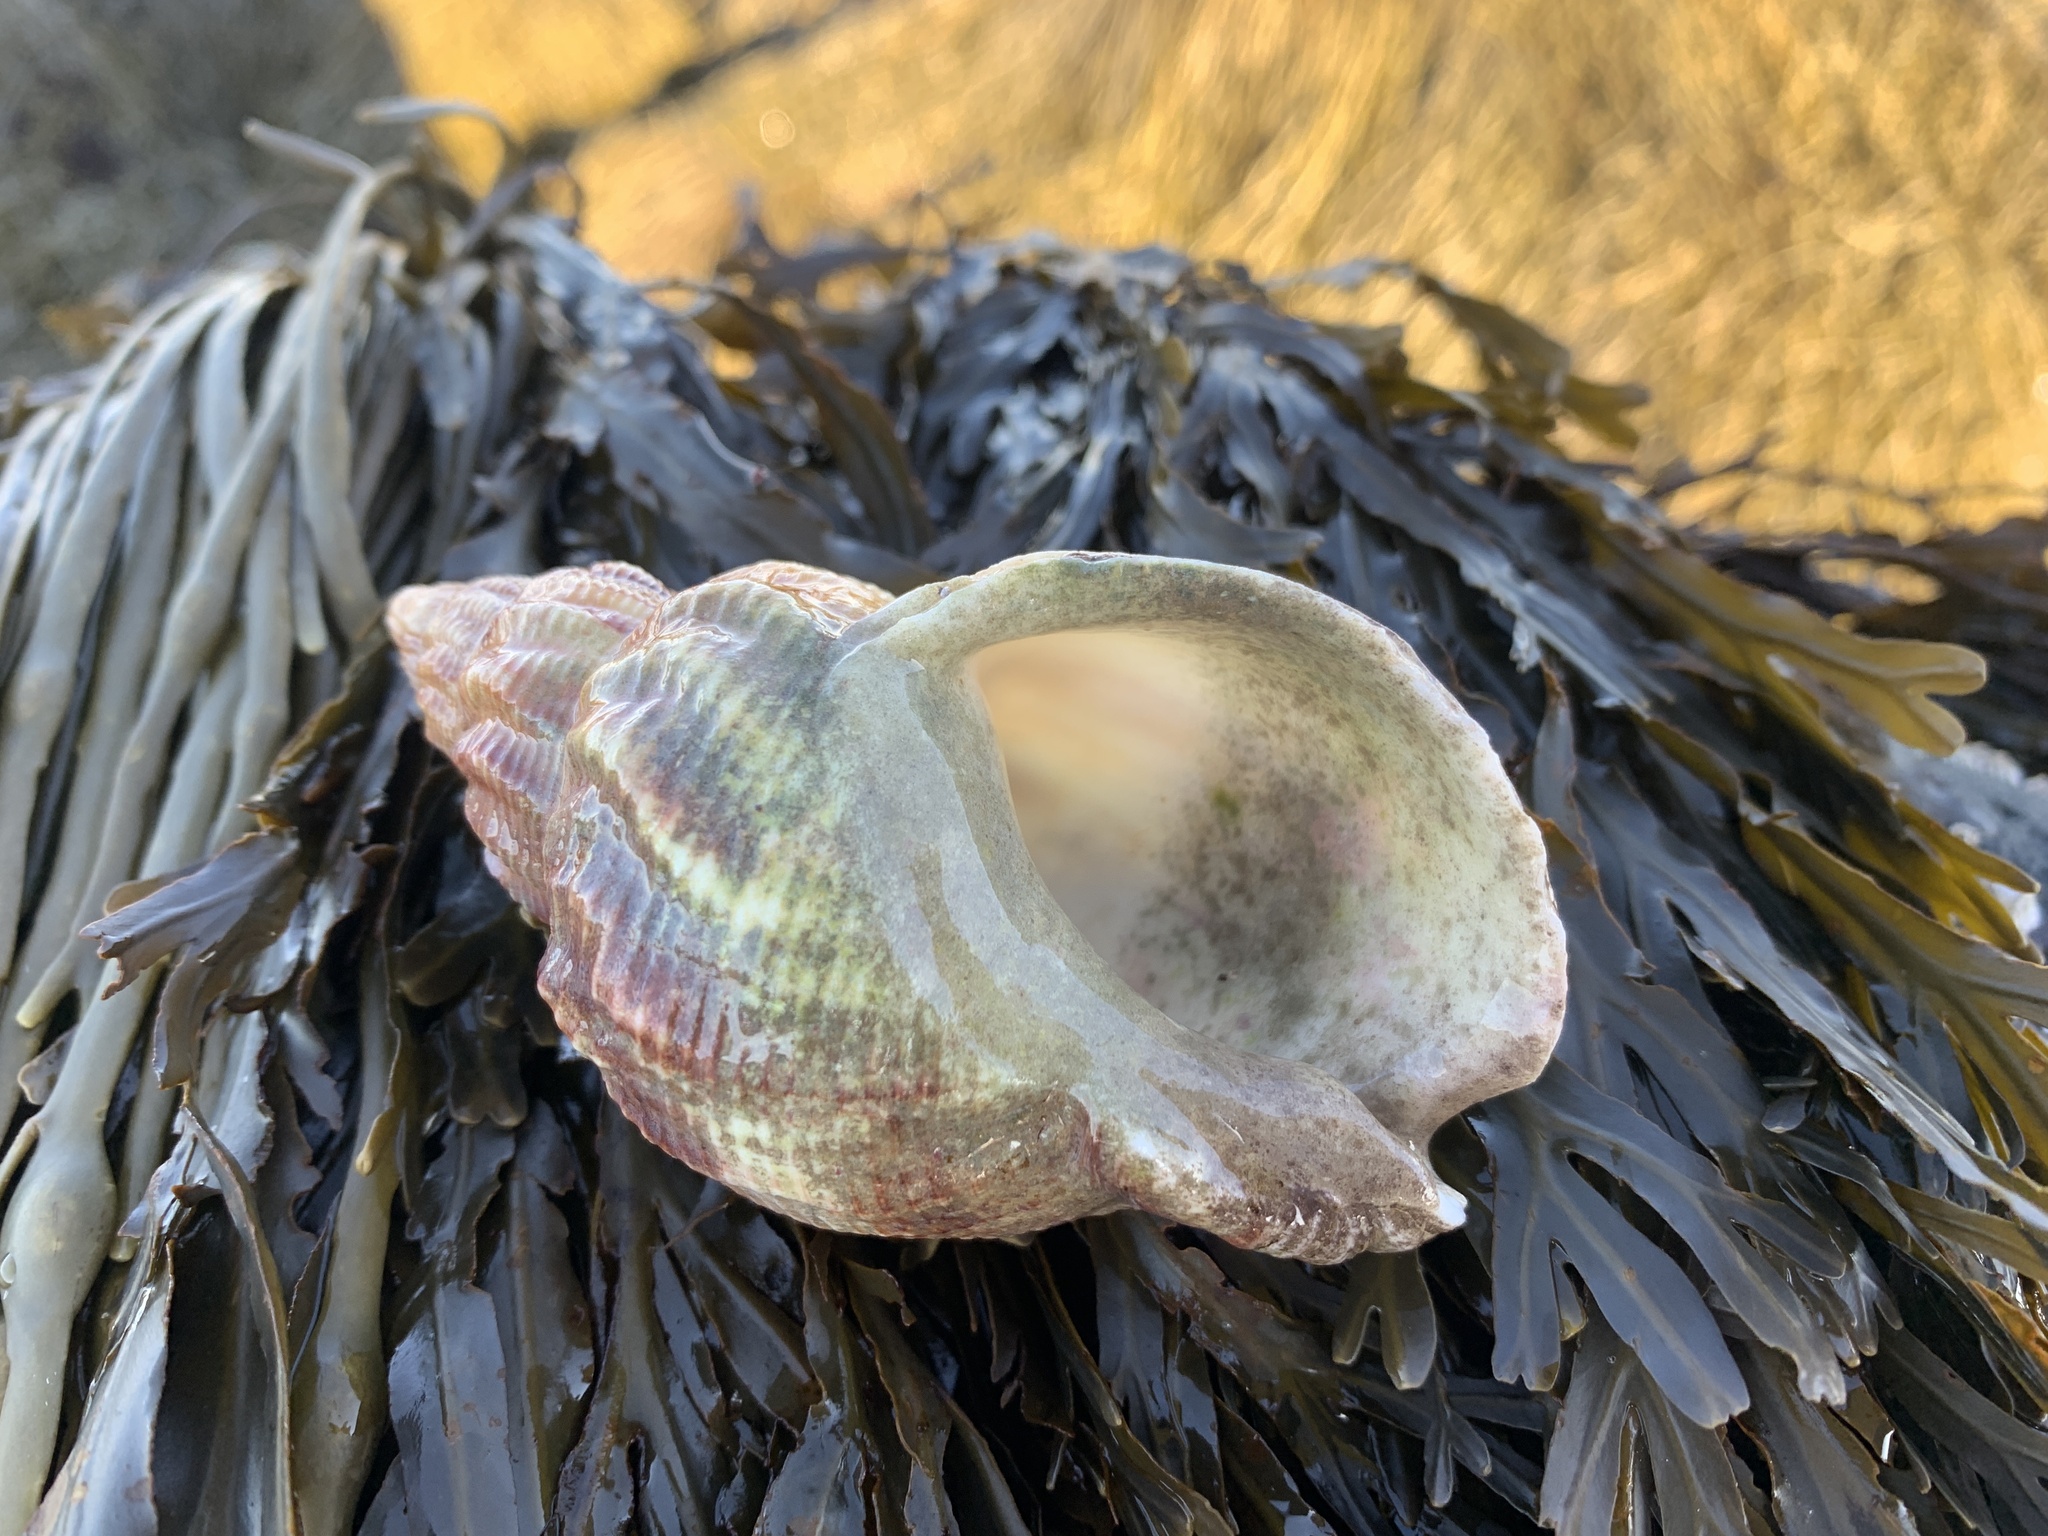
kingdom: Animalia
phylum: Mollusca
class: Gastropoda
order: Neogastropoda
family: Buccinidae
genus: Buccinum
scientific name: Buccinum undatum
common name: Common whelk
